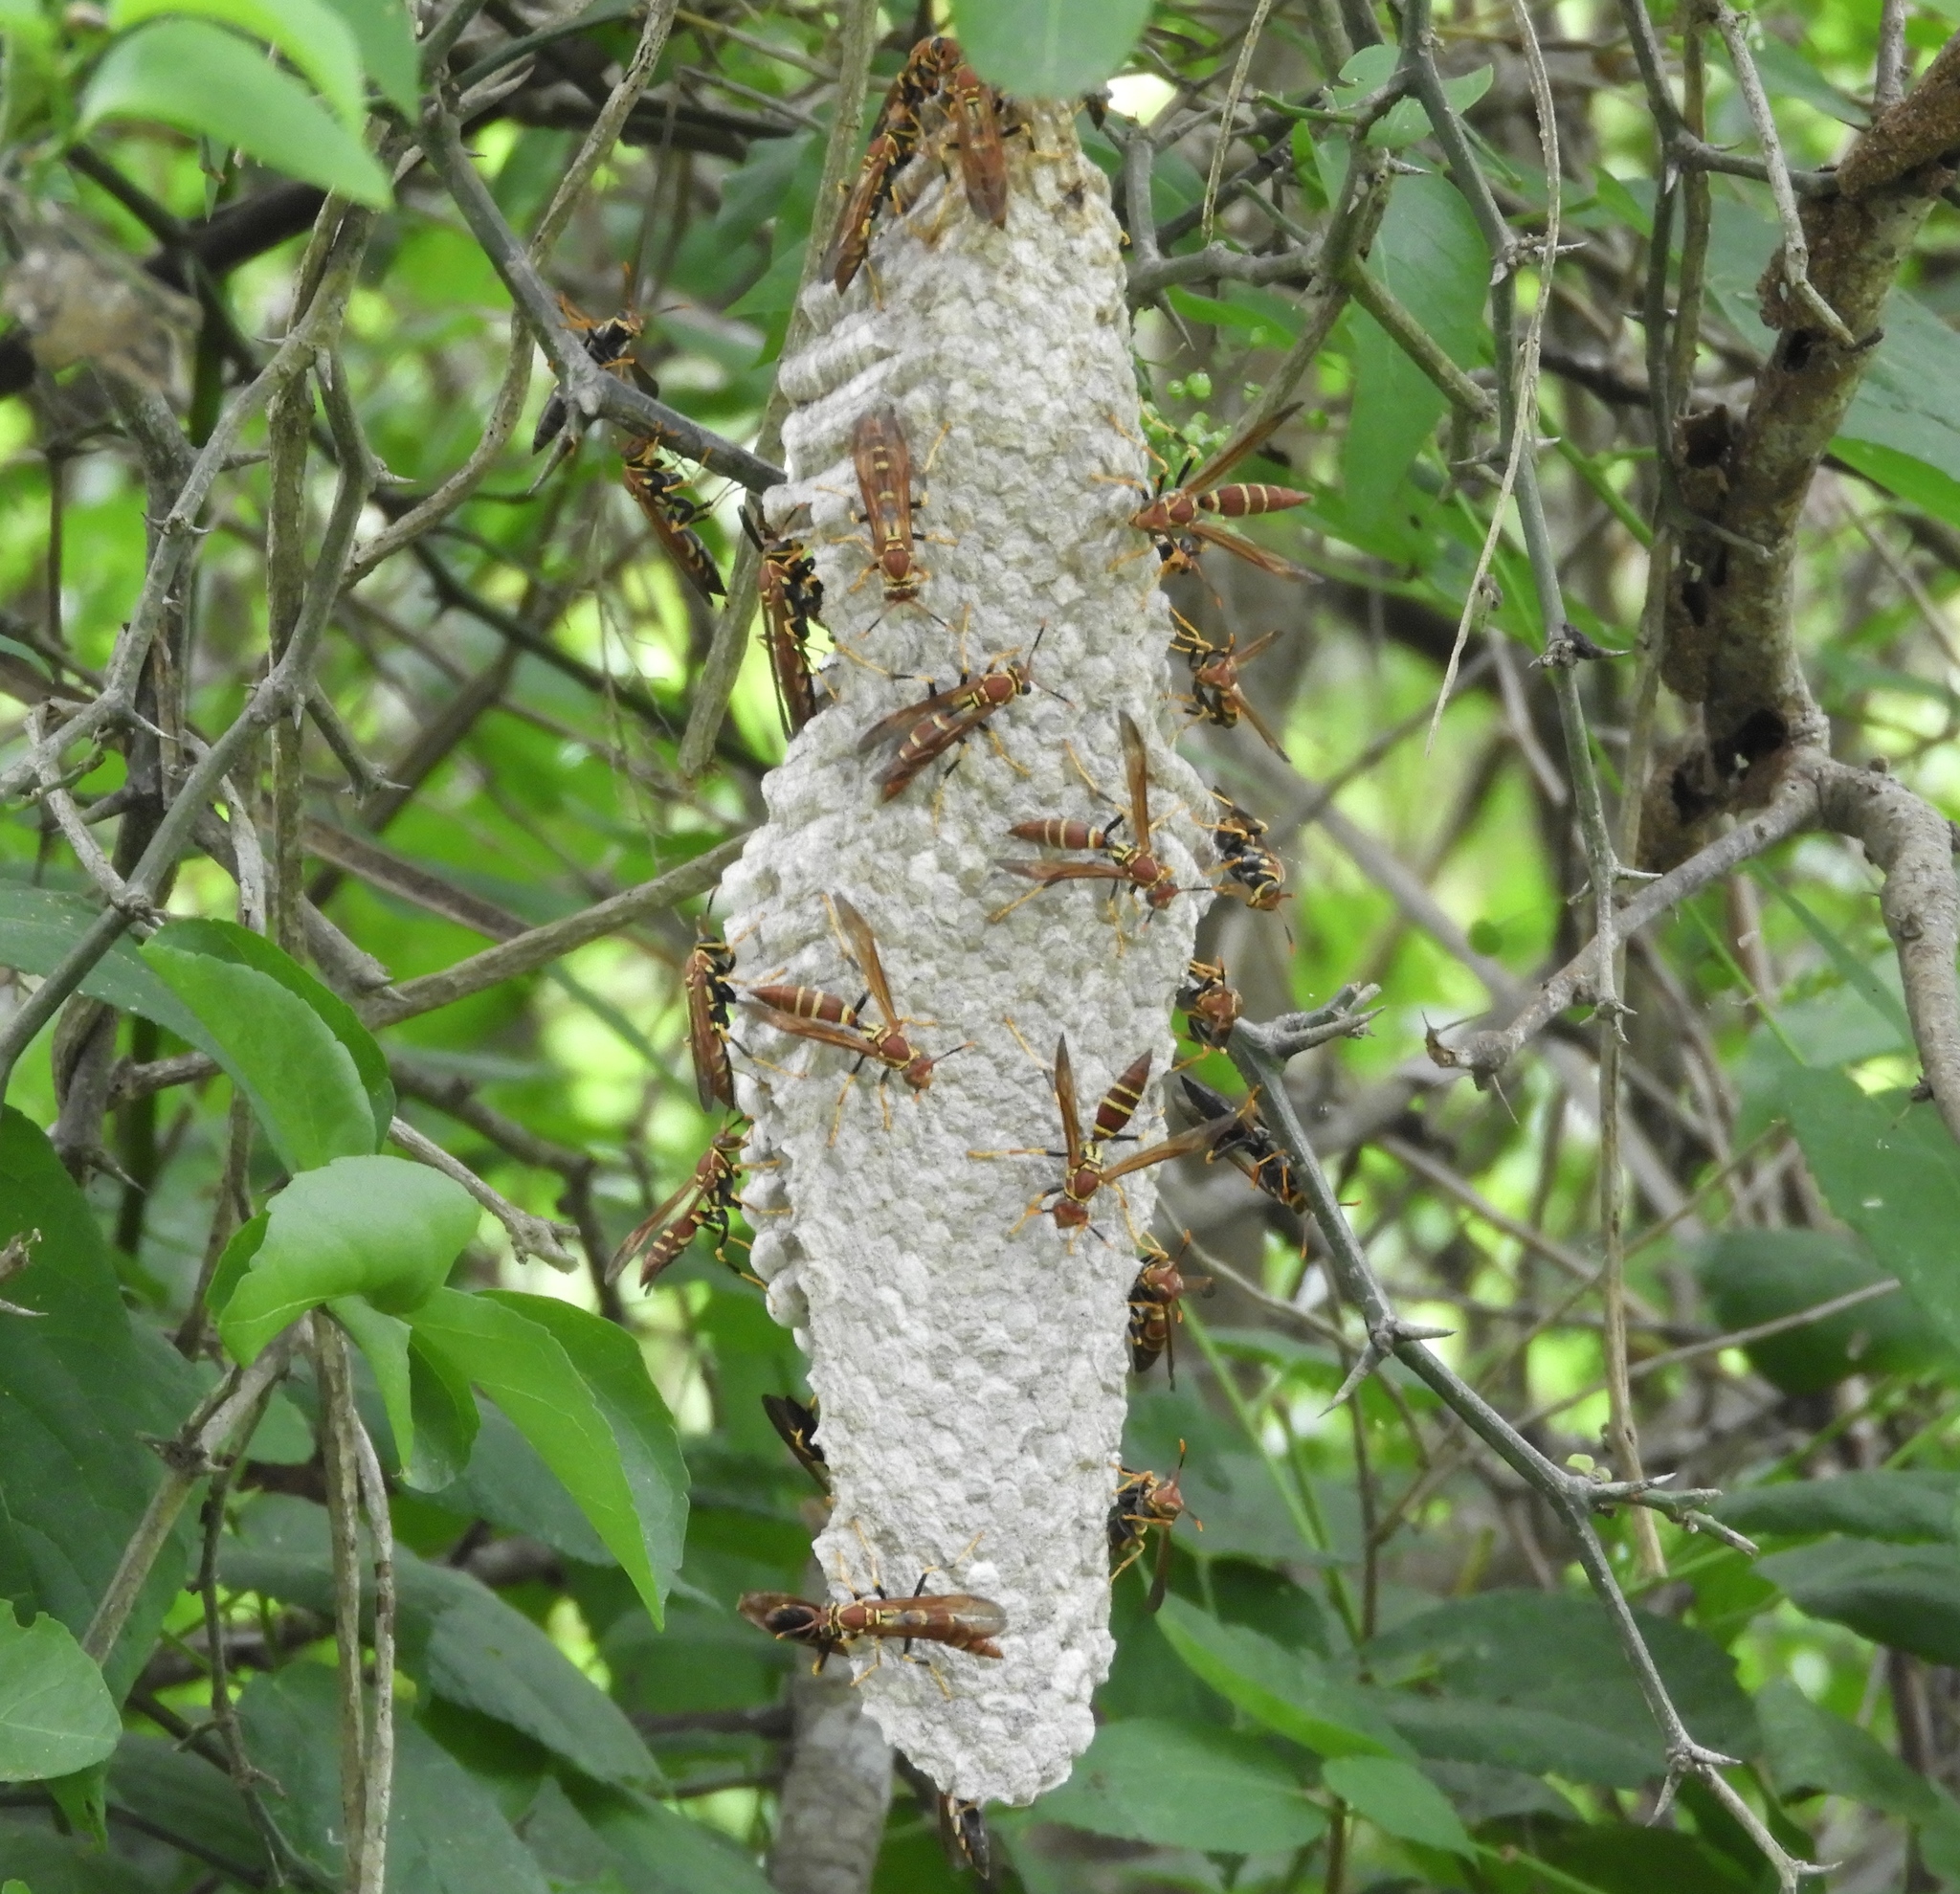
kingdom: Animalia
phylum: Arthropoda
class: Insecta
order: Hymenoptera
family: Eumenidae
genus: Polistes
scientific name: Polistes instabilis
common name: Unstable paper wasp
